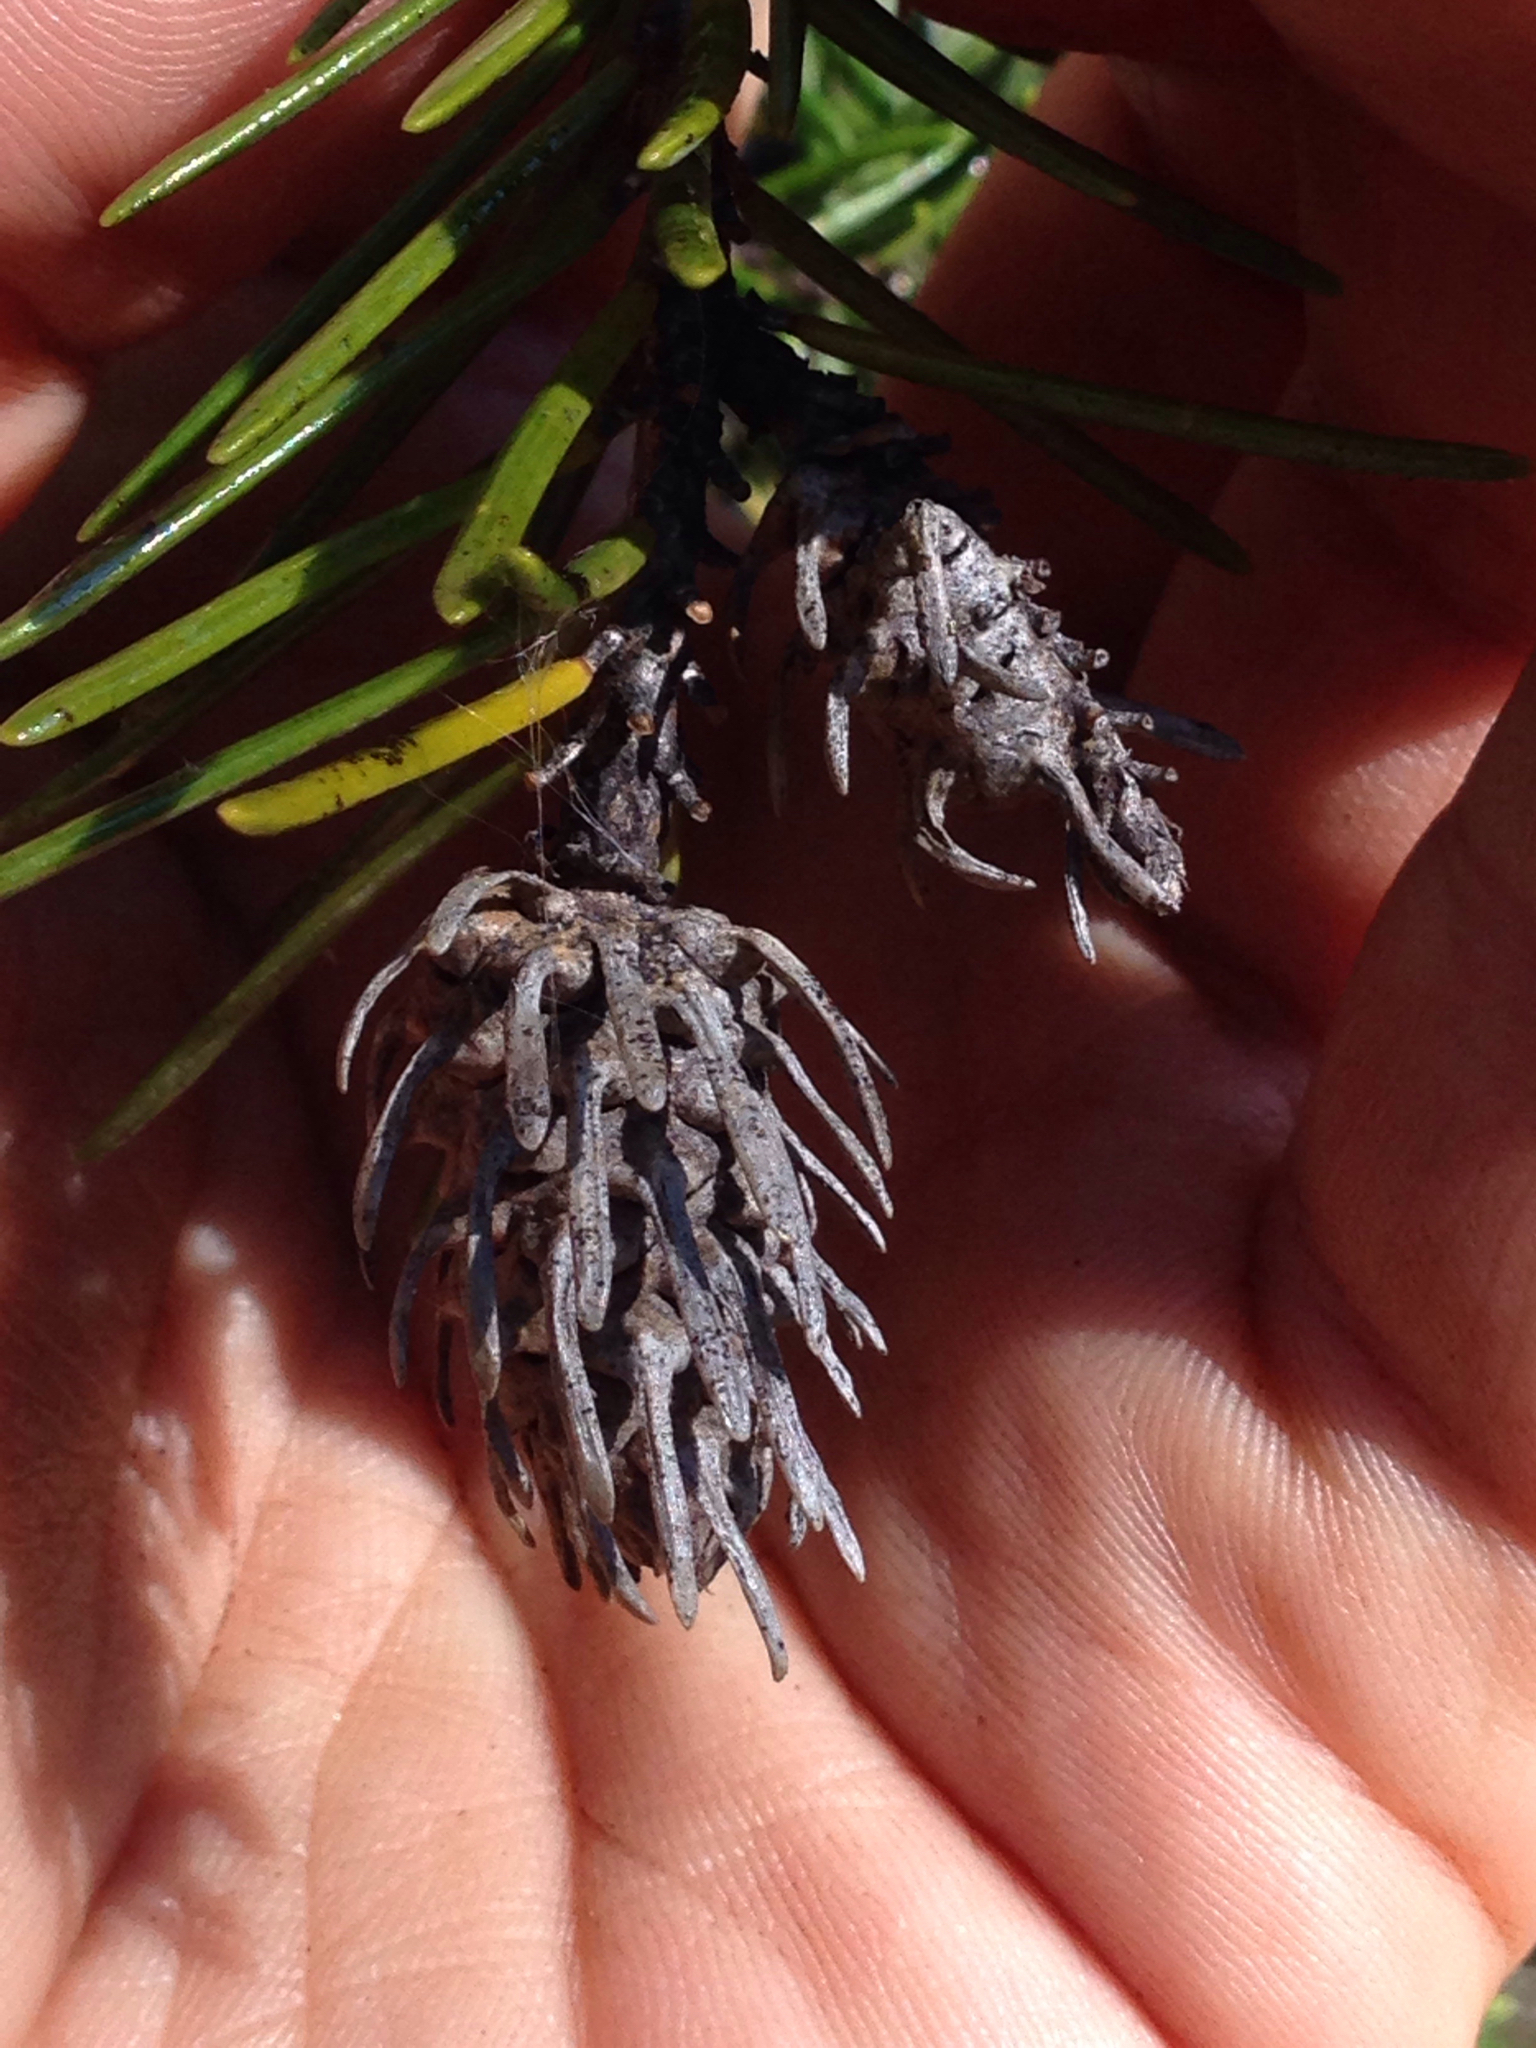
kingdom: Animalia
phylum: Arthropoda
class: Insecta
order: Hemiptera
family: Adelgidae
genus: Adelges
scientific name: Adelges cooleyi
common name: Cooley spruce gall adelgid
